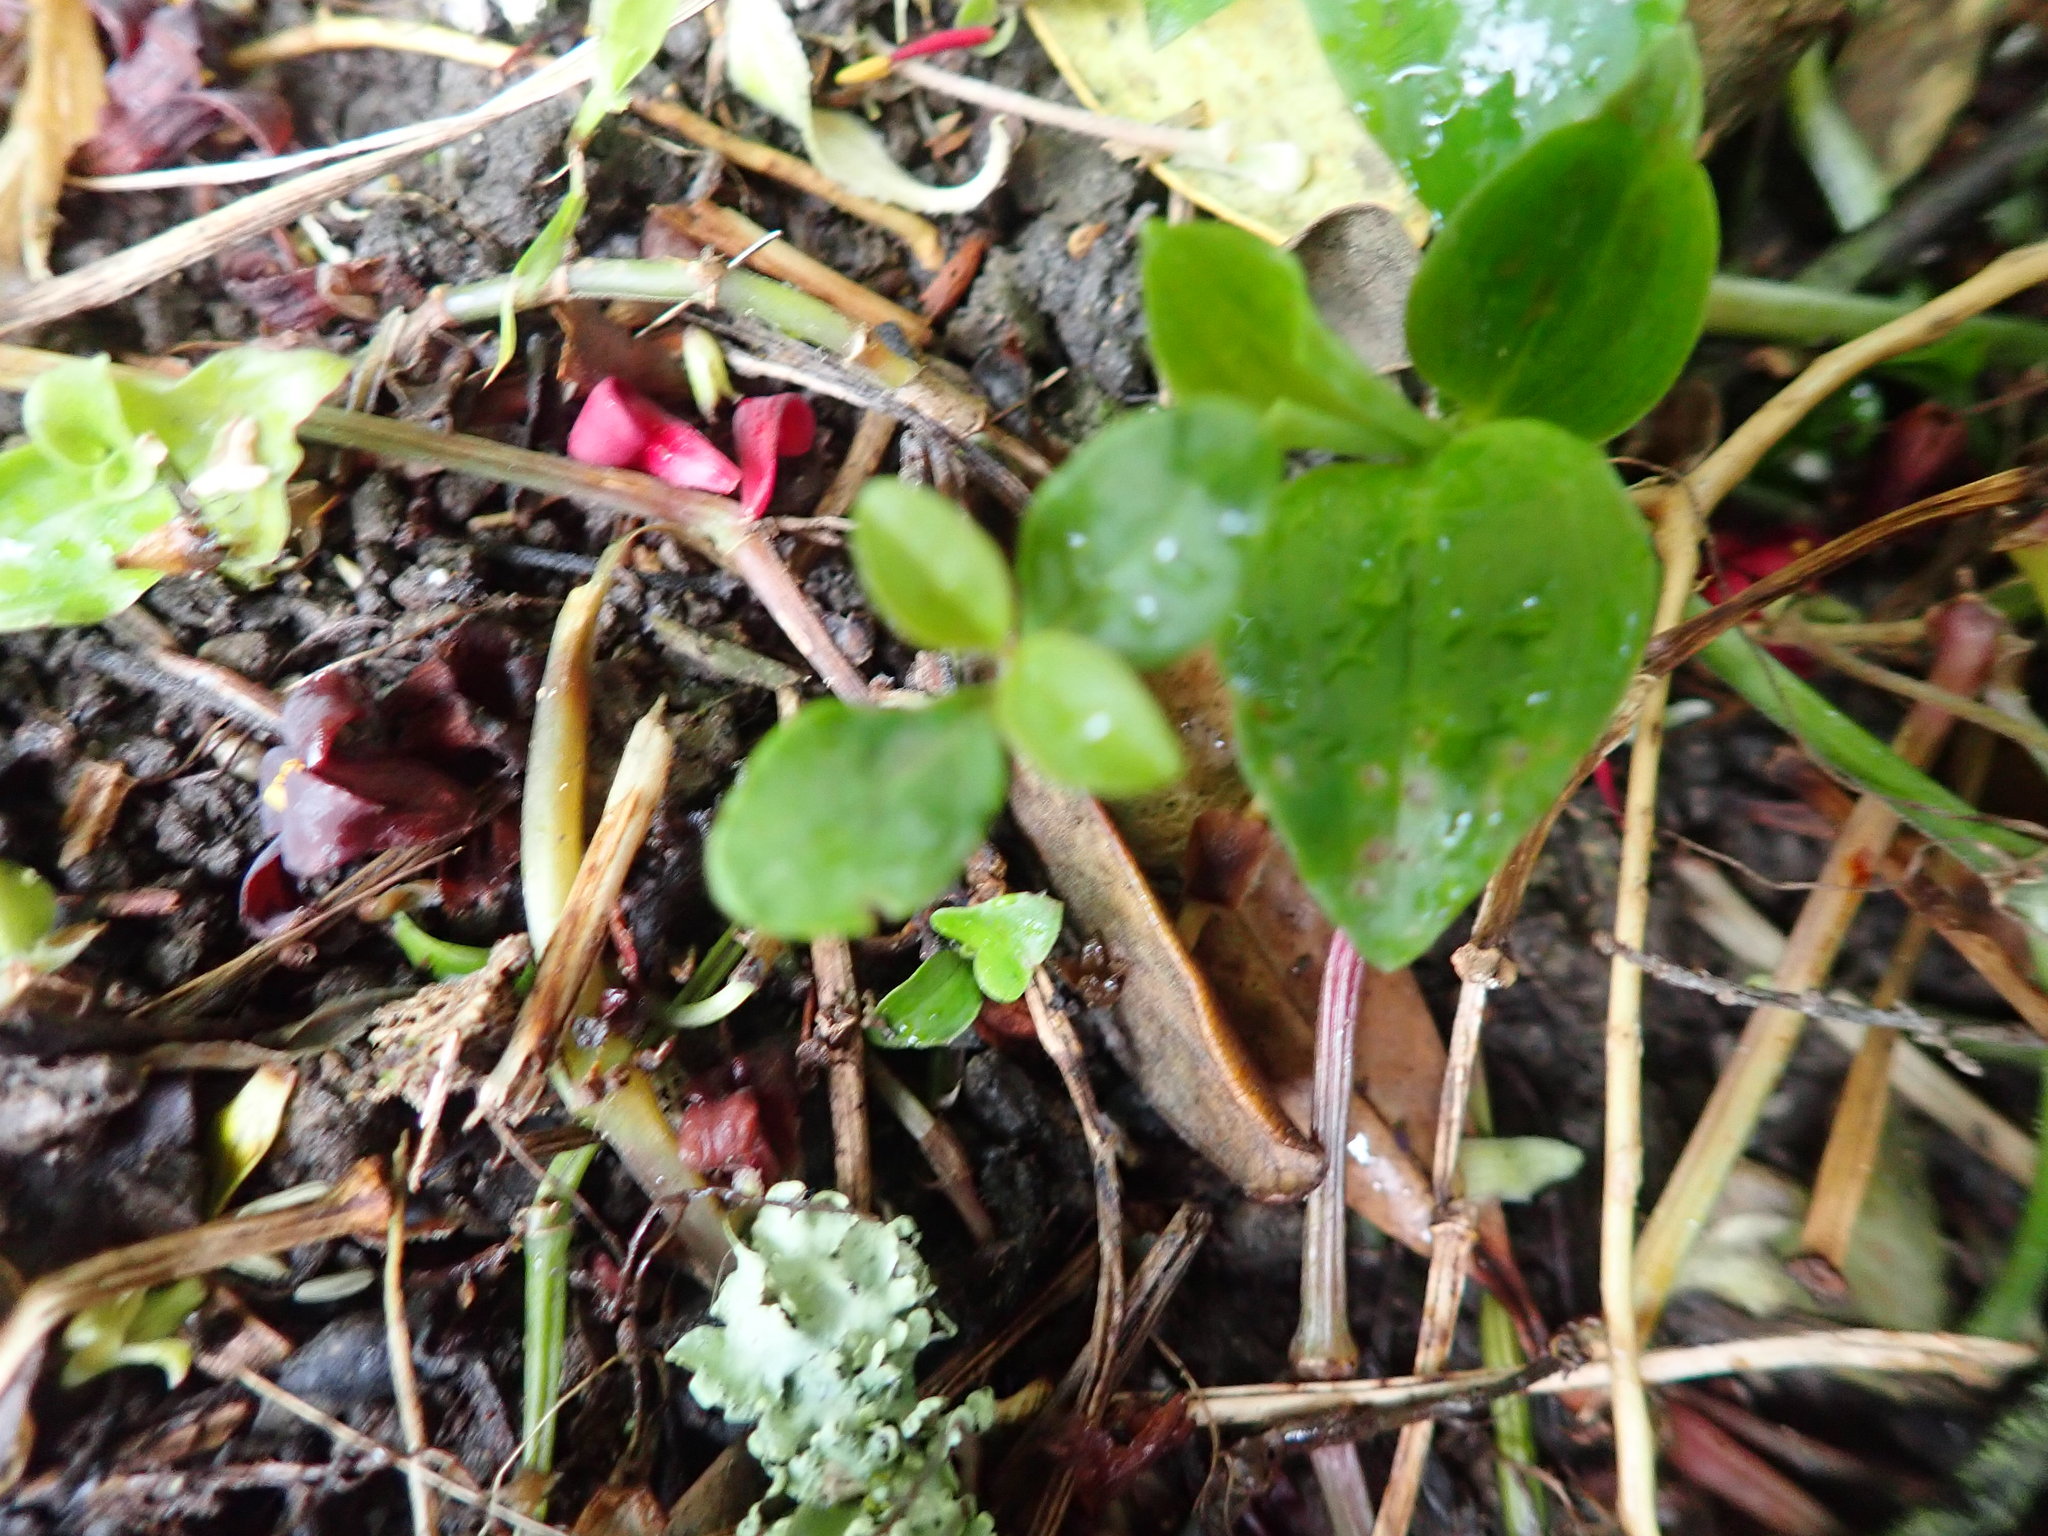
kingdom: Plantae
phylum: Tracheophyta
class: Magnoliopsida
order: Lamiales
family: Oleaceae
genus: Ligustrum
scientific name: Ligustrum
